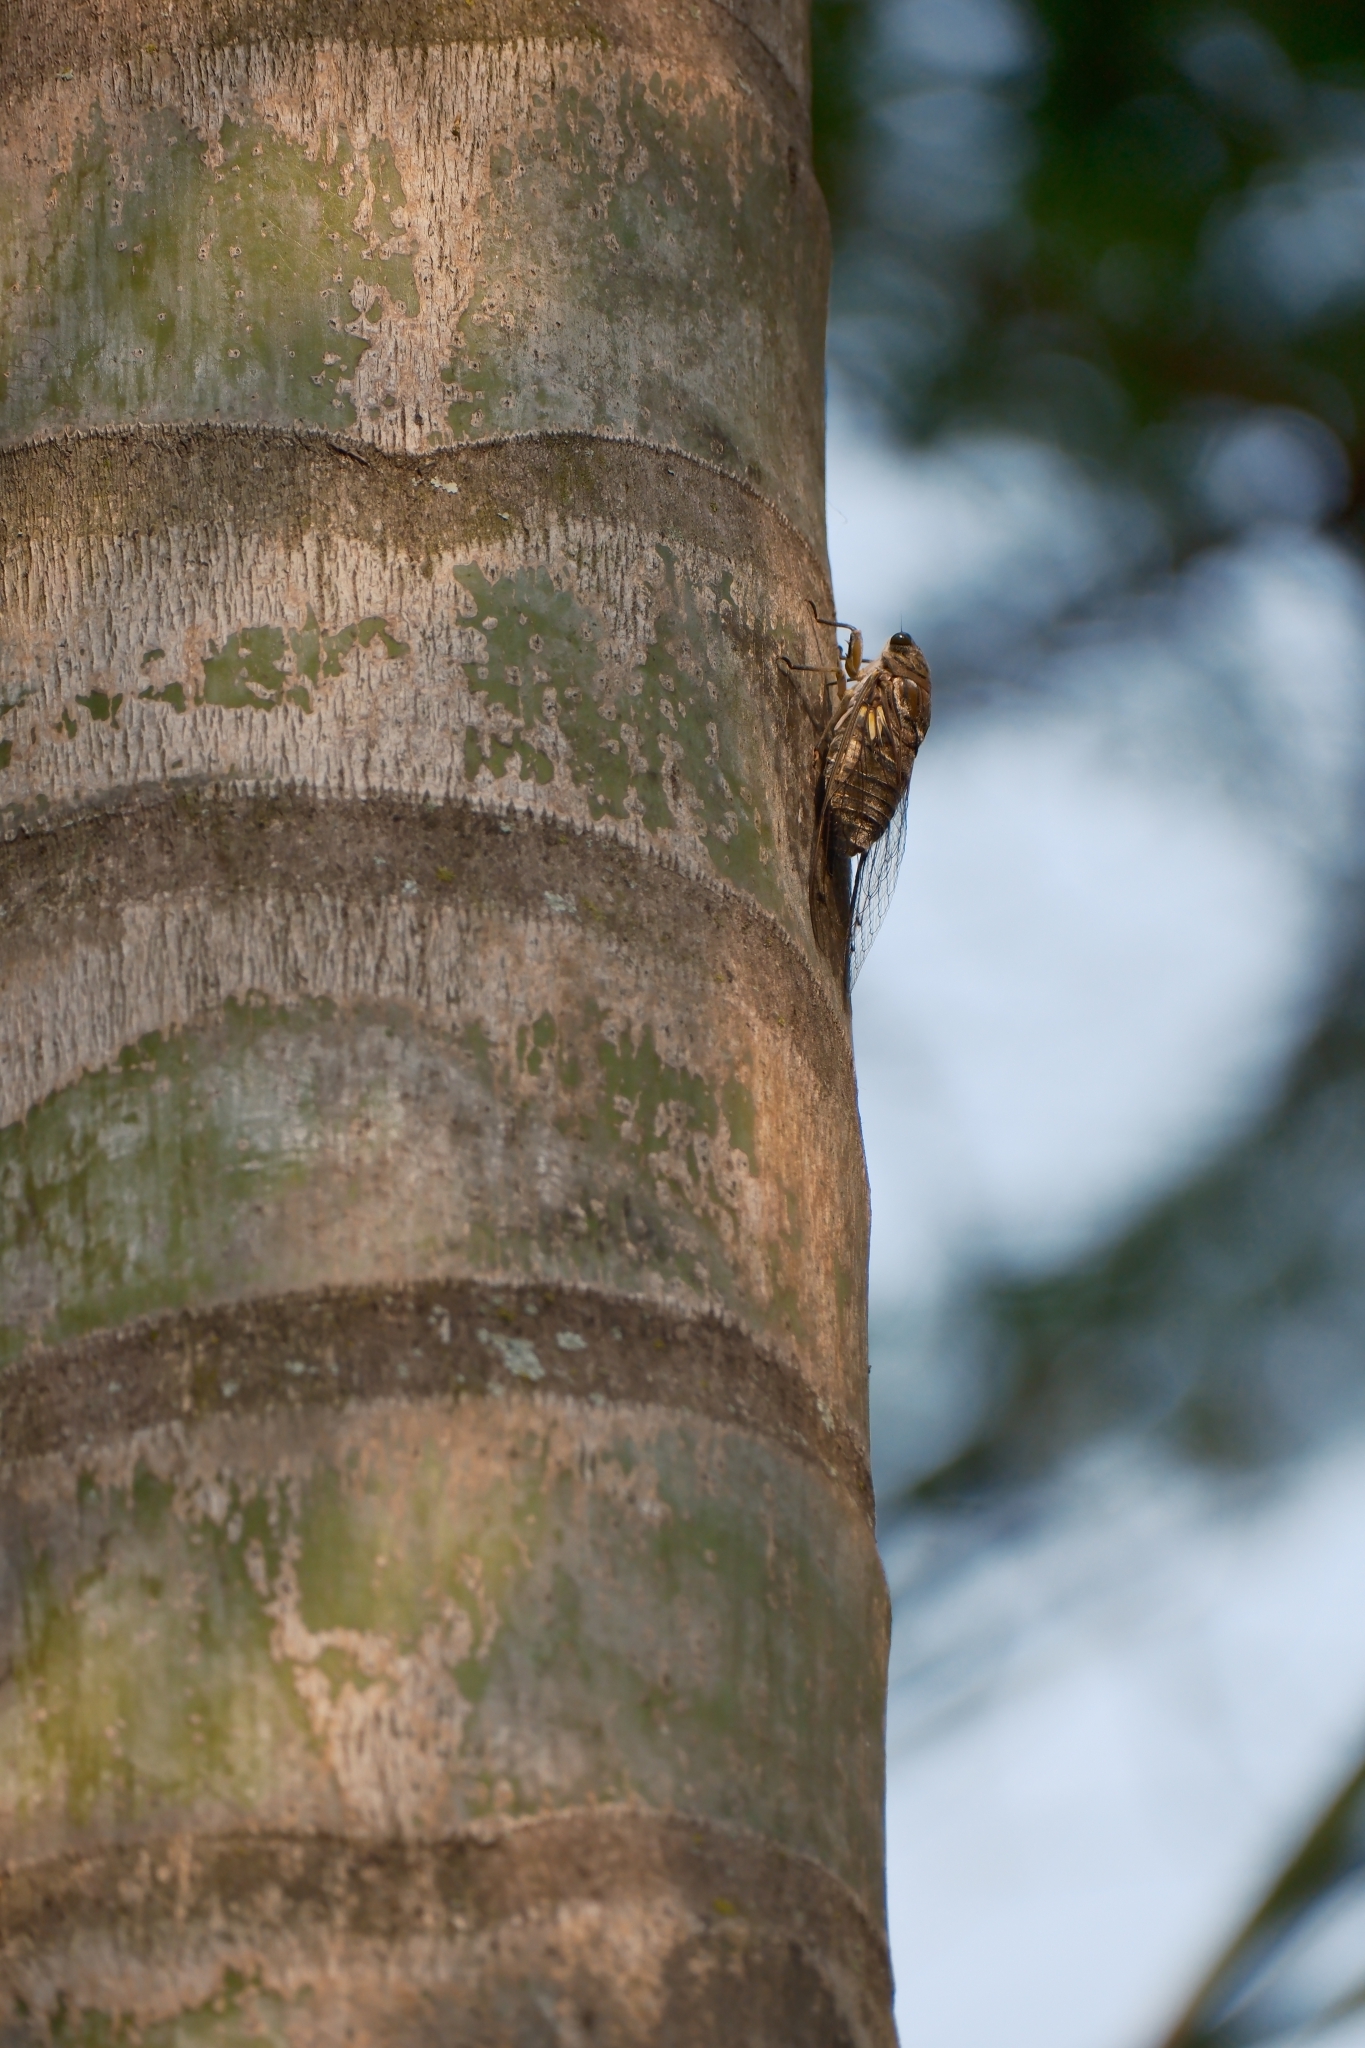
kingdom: Animalia
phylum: Arthropoda
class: Insecta
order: Hemiptera
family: Cicadidae
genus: Quesada
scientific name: Quesada gigas
